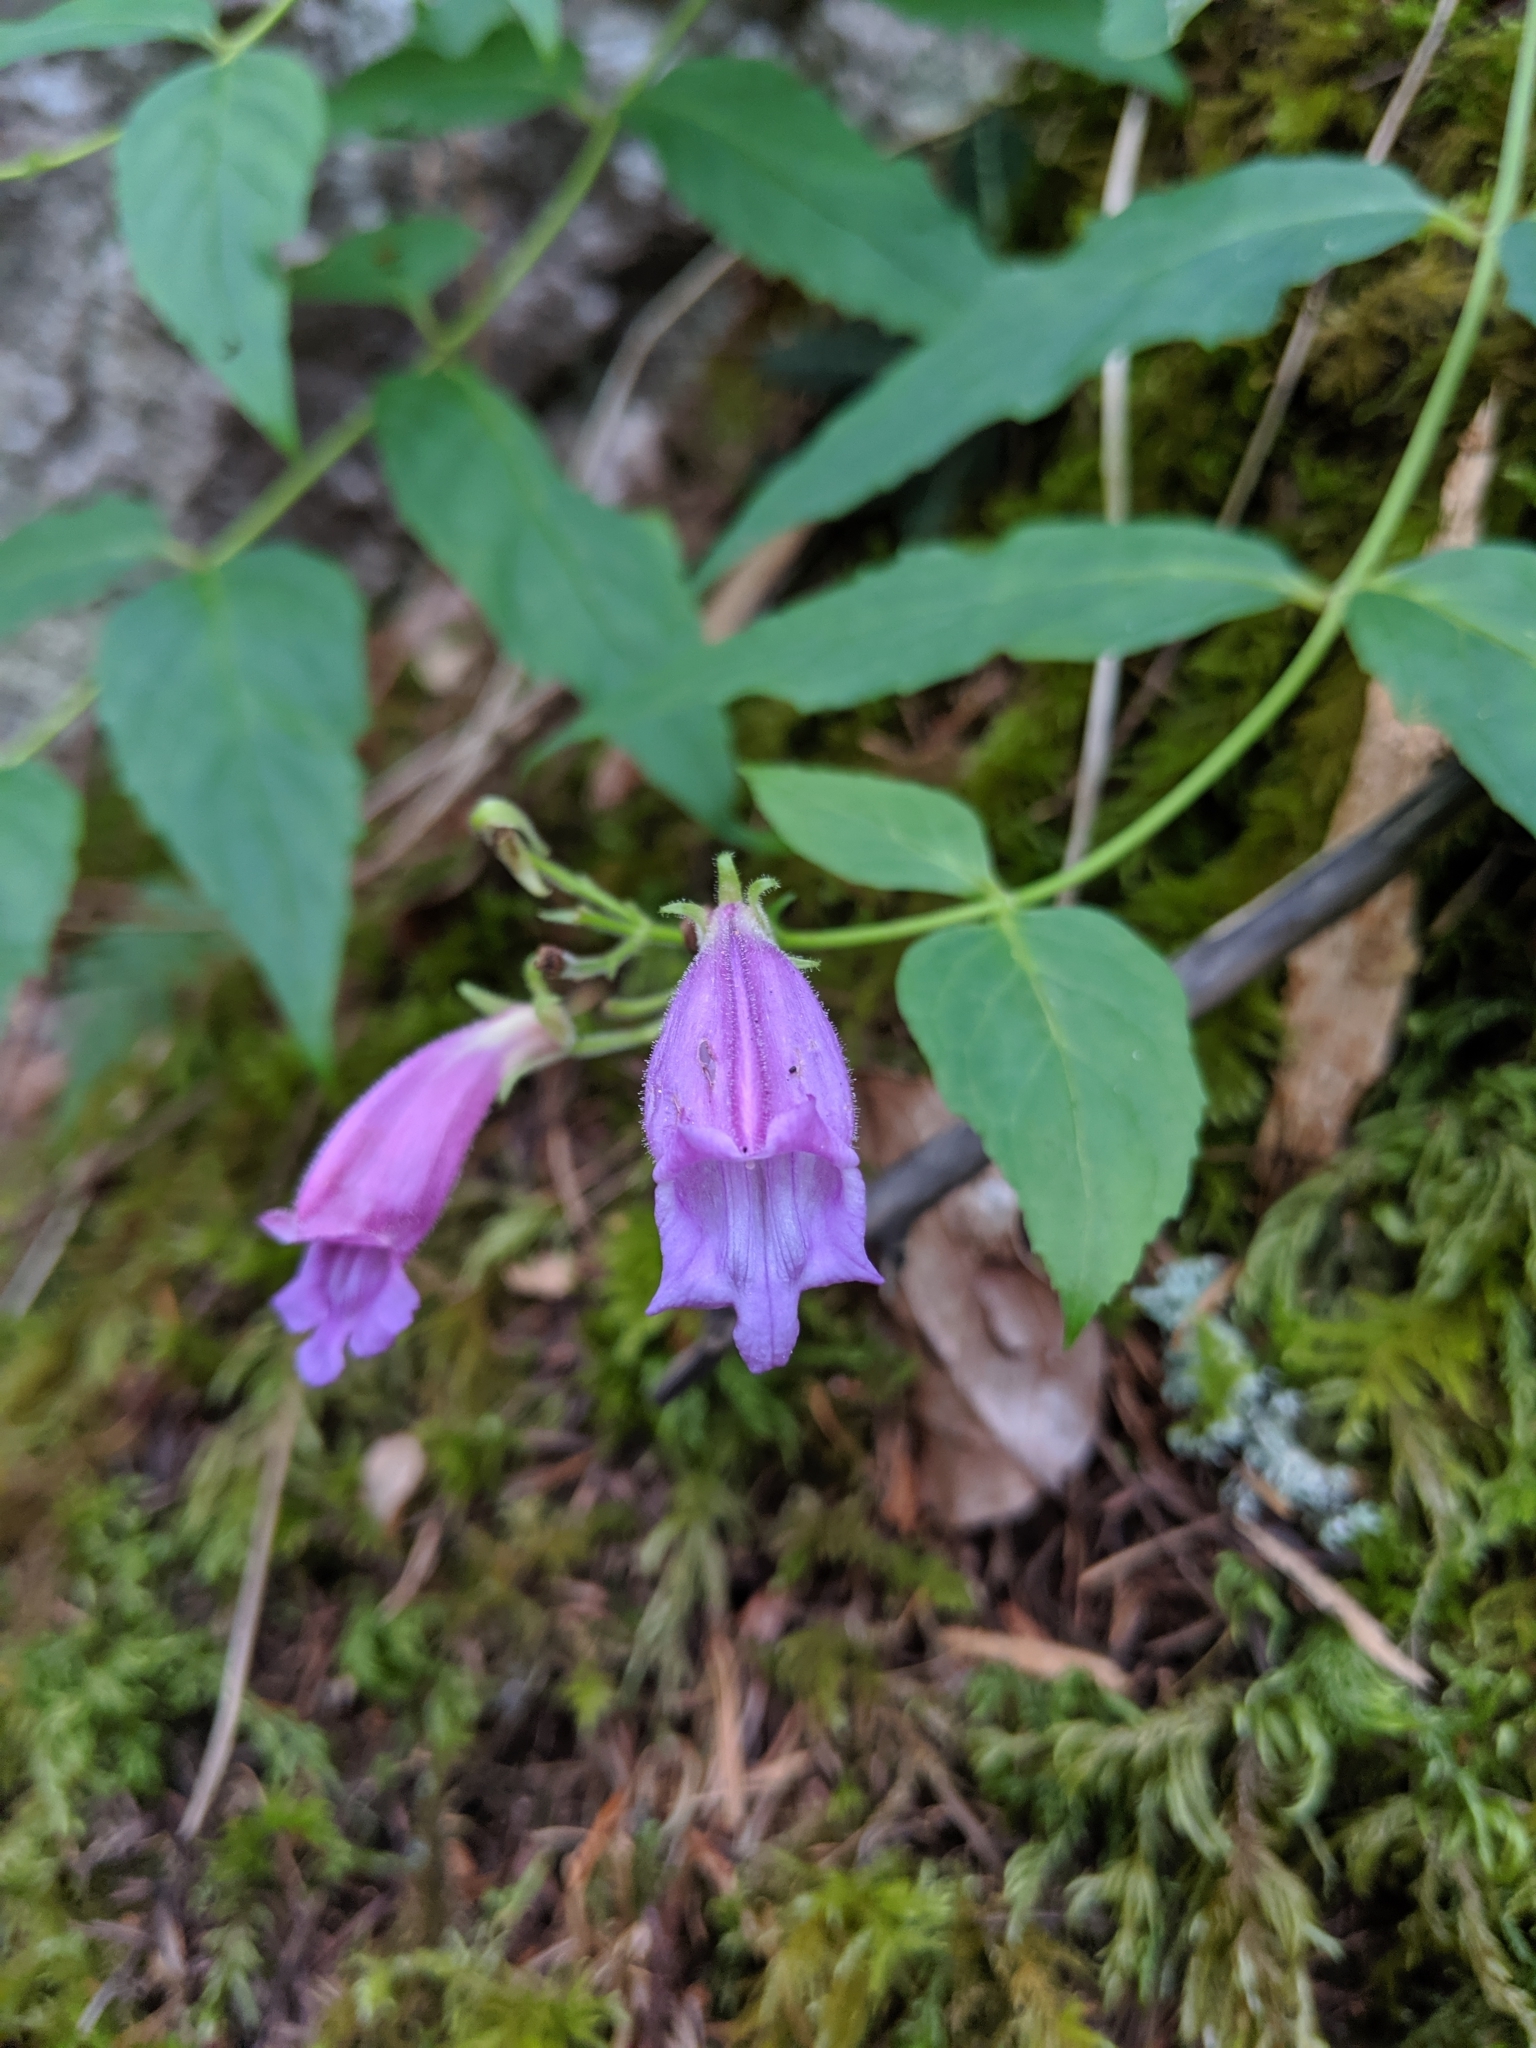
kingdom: Plantae
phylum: Tracheophyta
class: Magnoliopsida
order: Lamiales
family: Plantaginaceae
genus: Nothochelone
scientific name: Nothochelone nemorosa
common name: Woodland beardtongue
